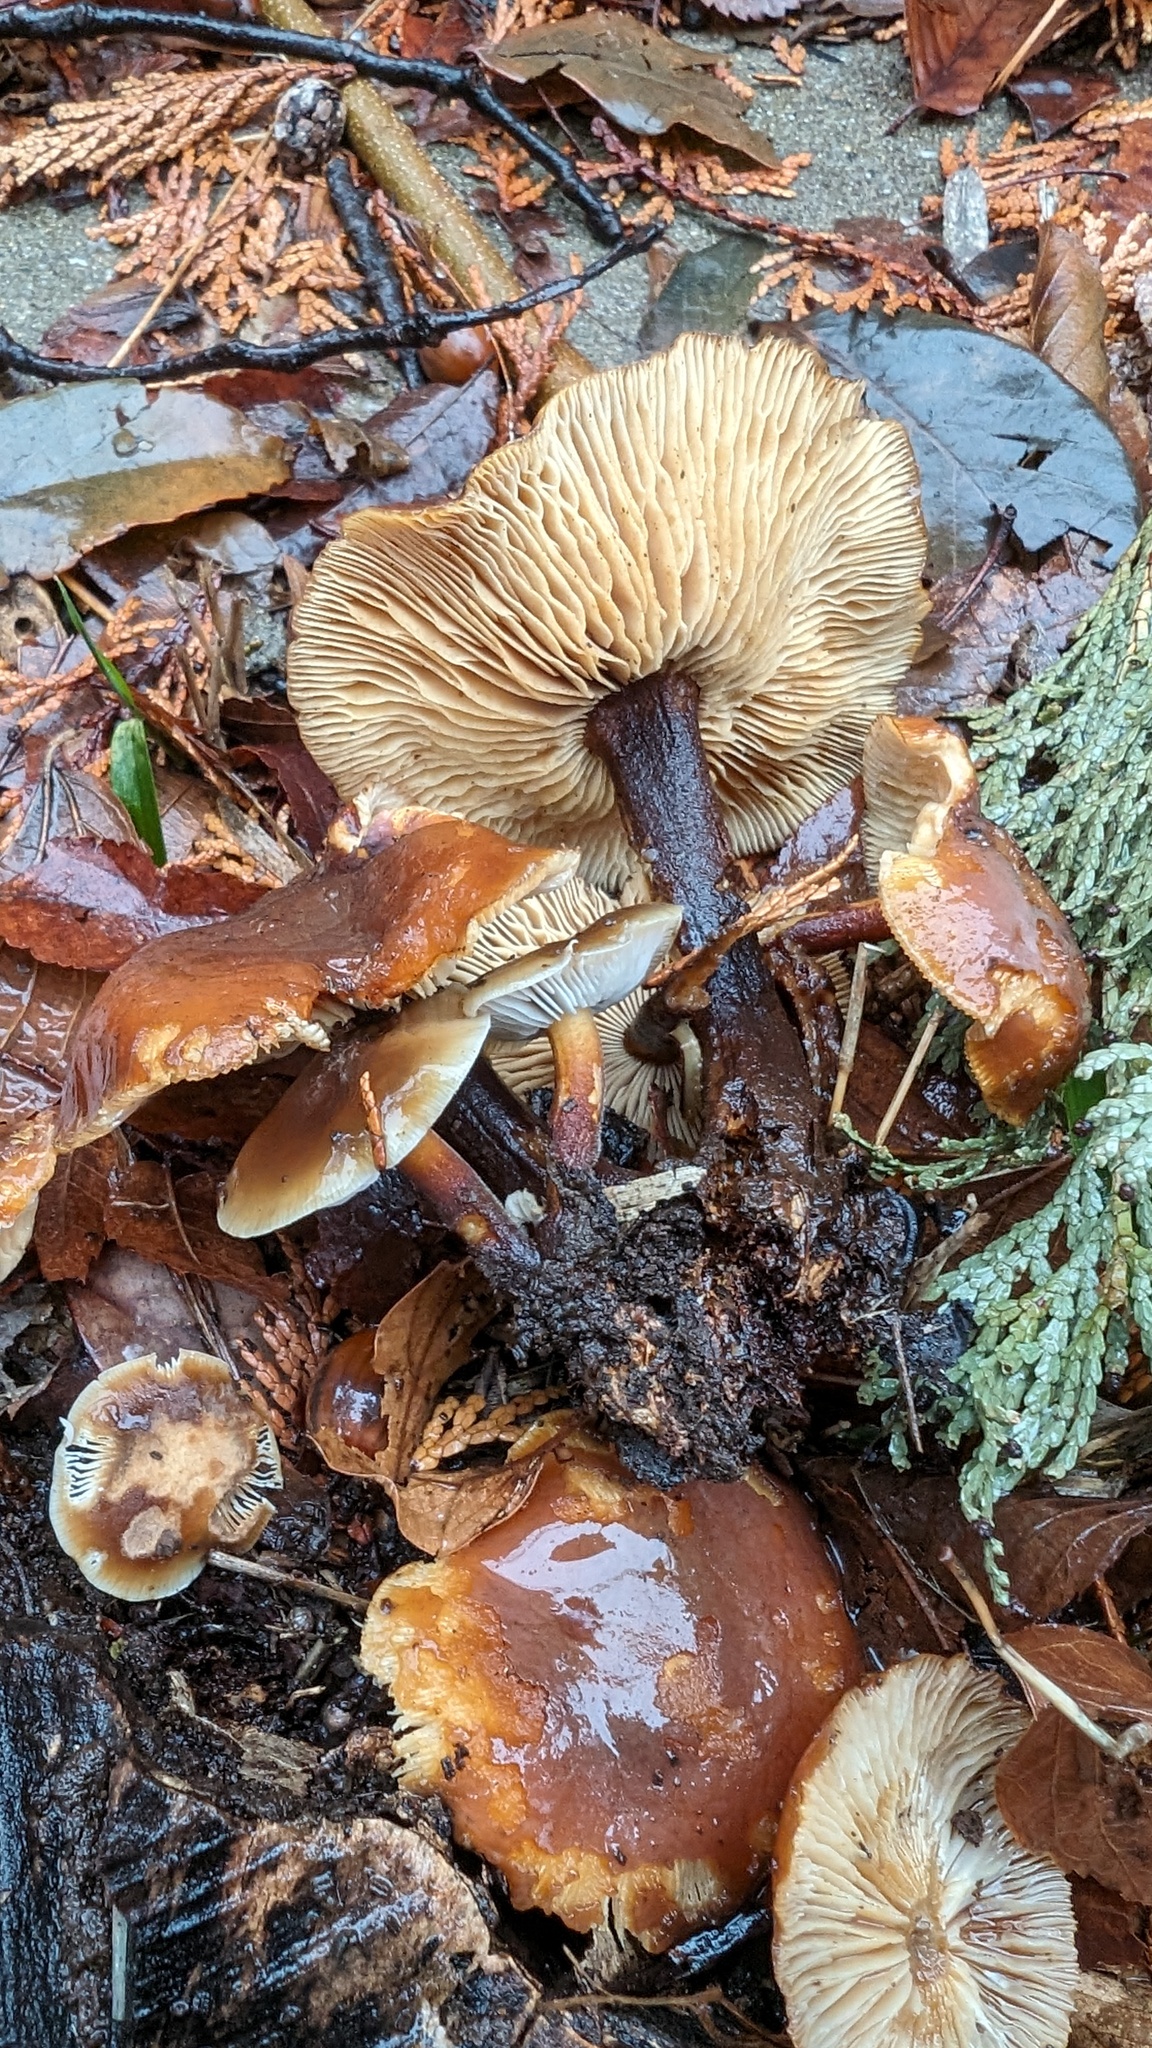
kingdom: Fungi
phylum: Basidiomycota
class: Agaricomycetes
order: Agaricales
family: Physalacriaceae
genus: Flammulina
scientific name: Flammulina velutipes
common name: Velvet shank
